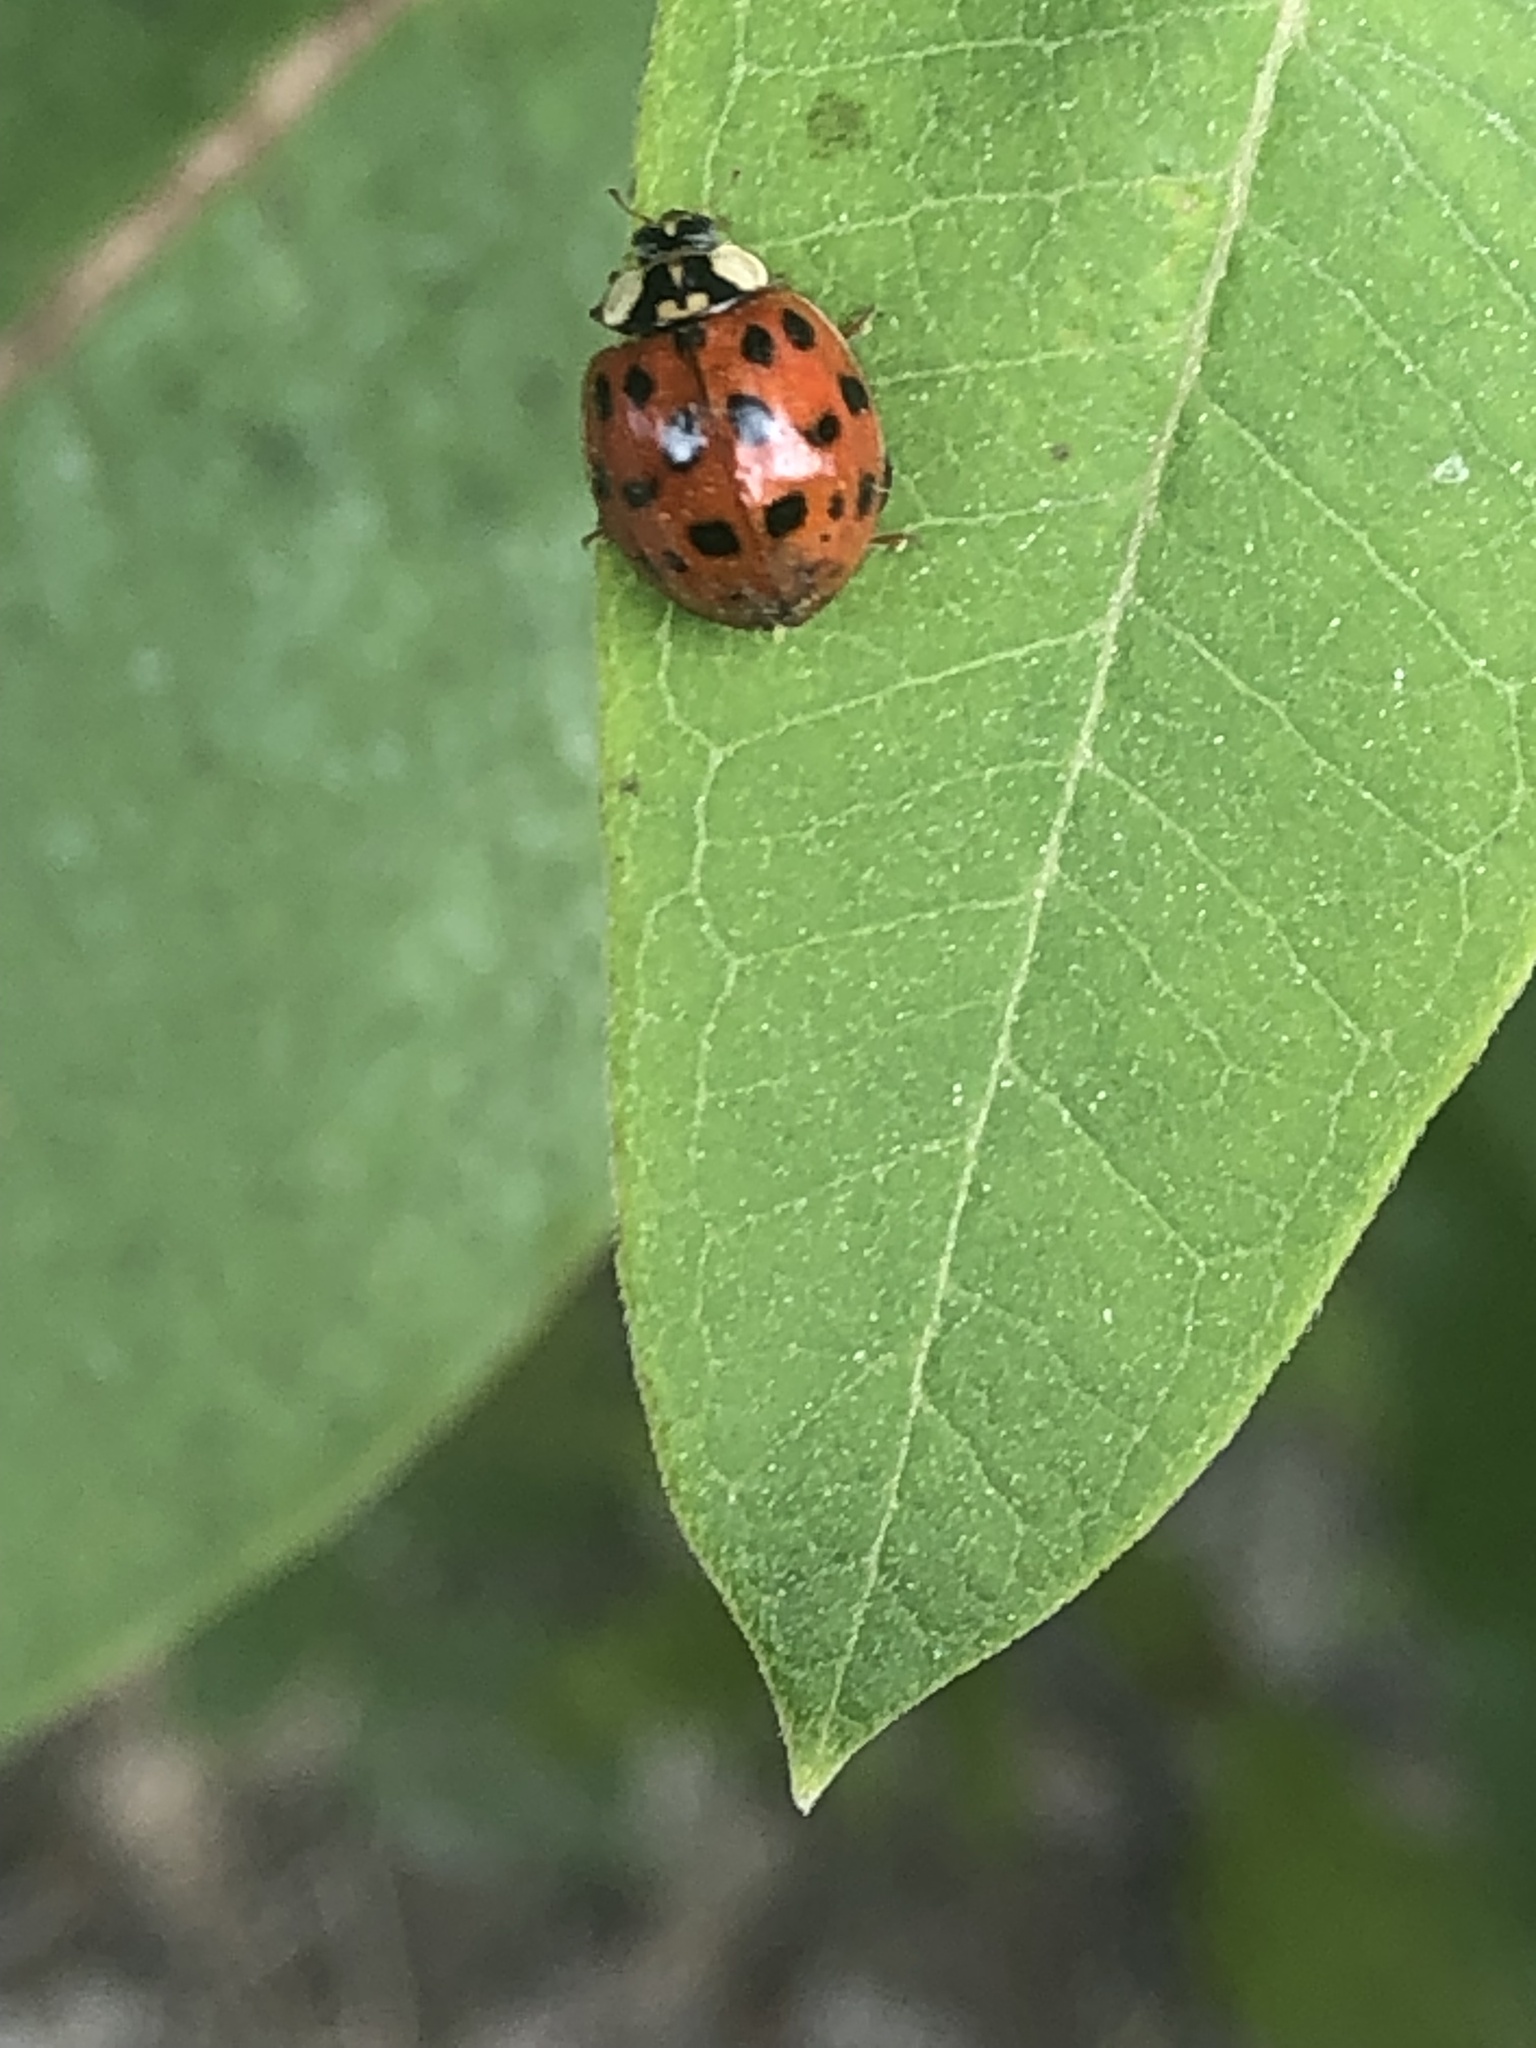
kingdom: Animalia
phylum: Arthropoda
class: Insecta
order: Coleoptera
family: Coccinellidae
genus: Harmonia
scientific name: Harmonia axyridis
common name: Harlequin ladybird
